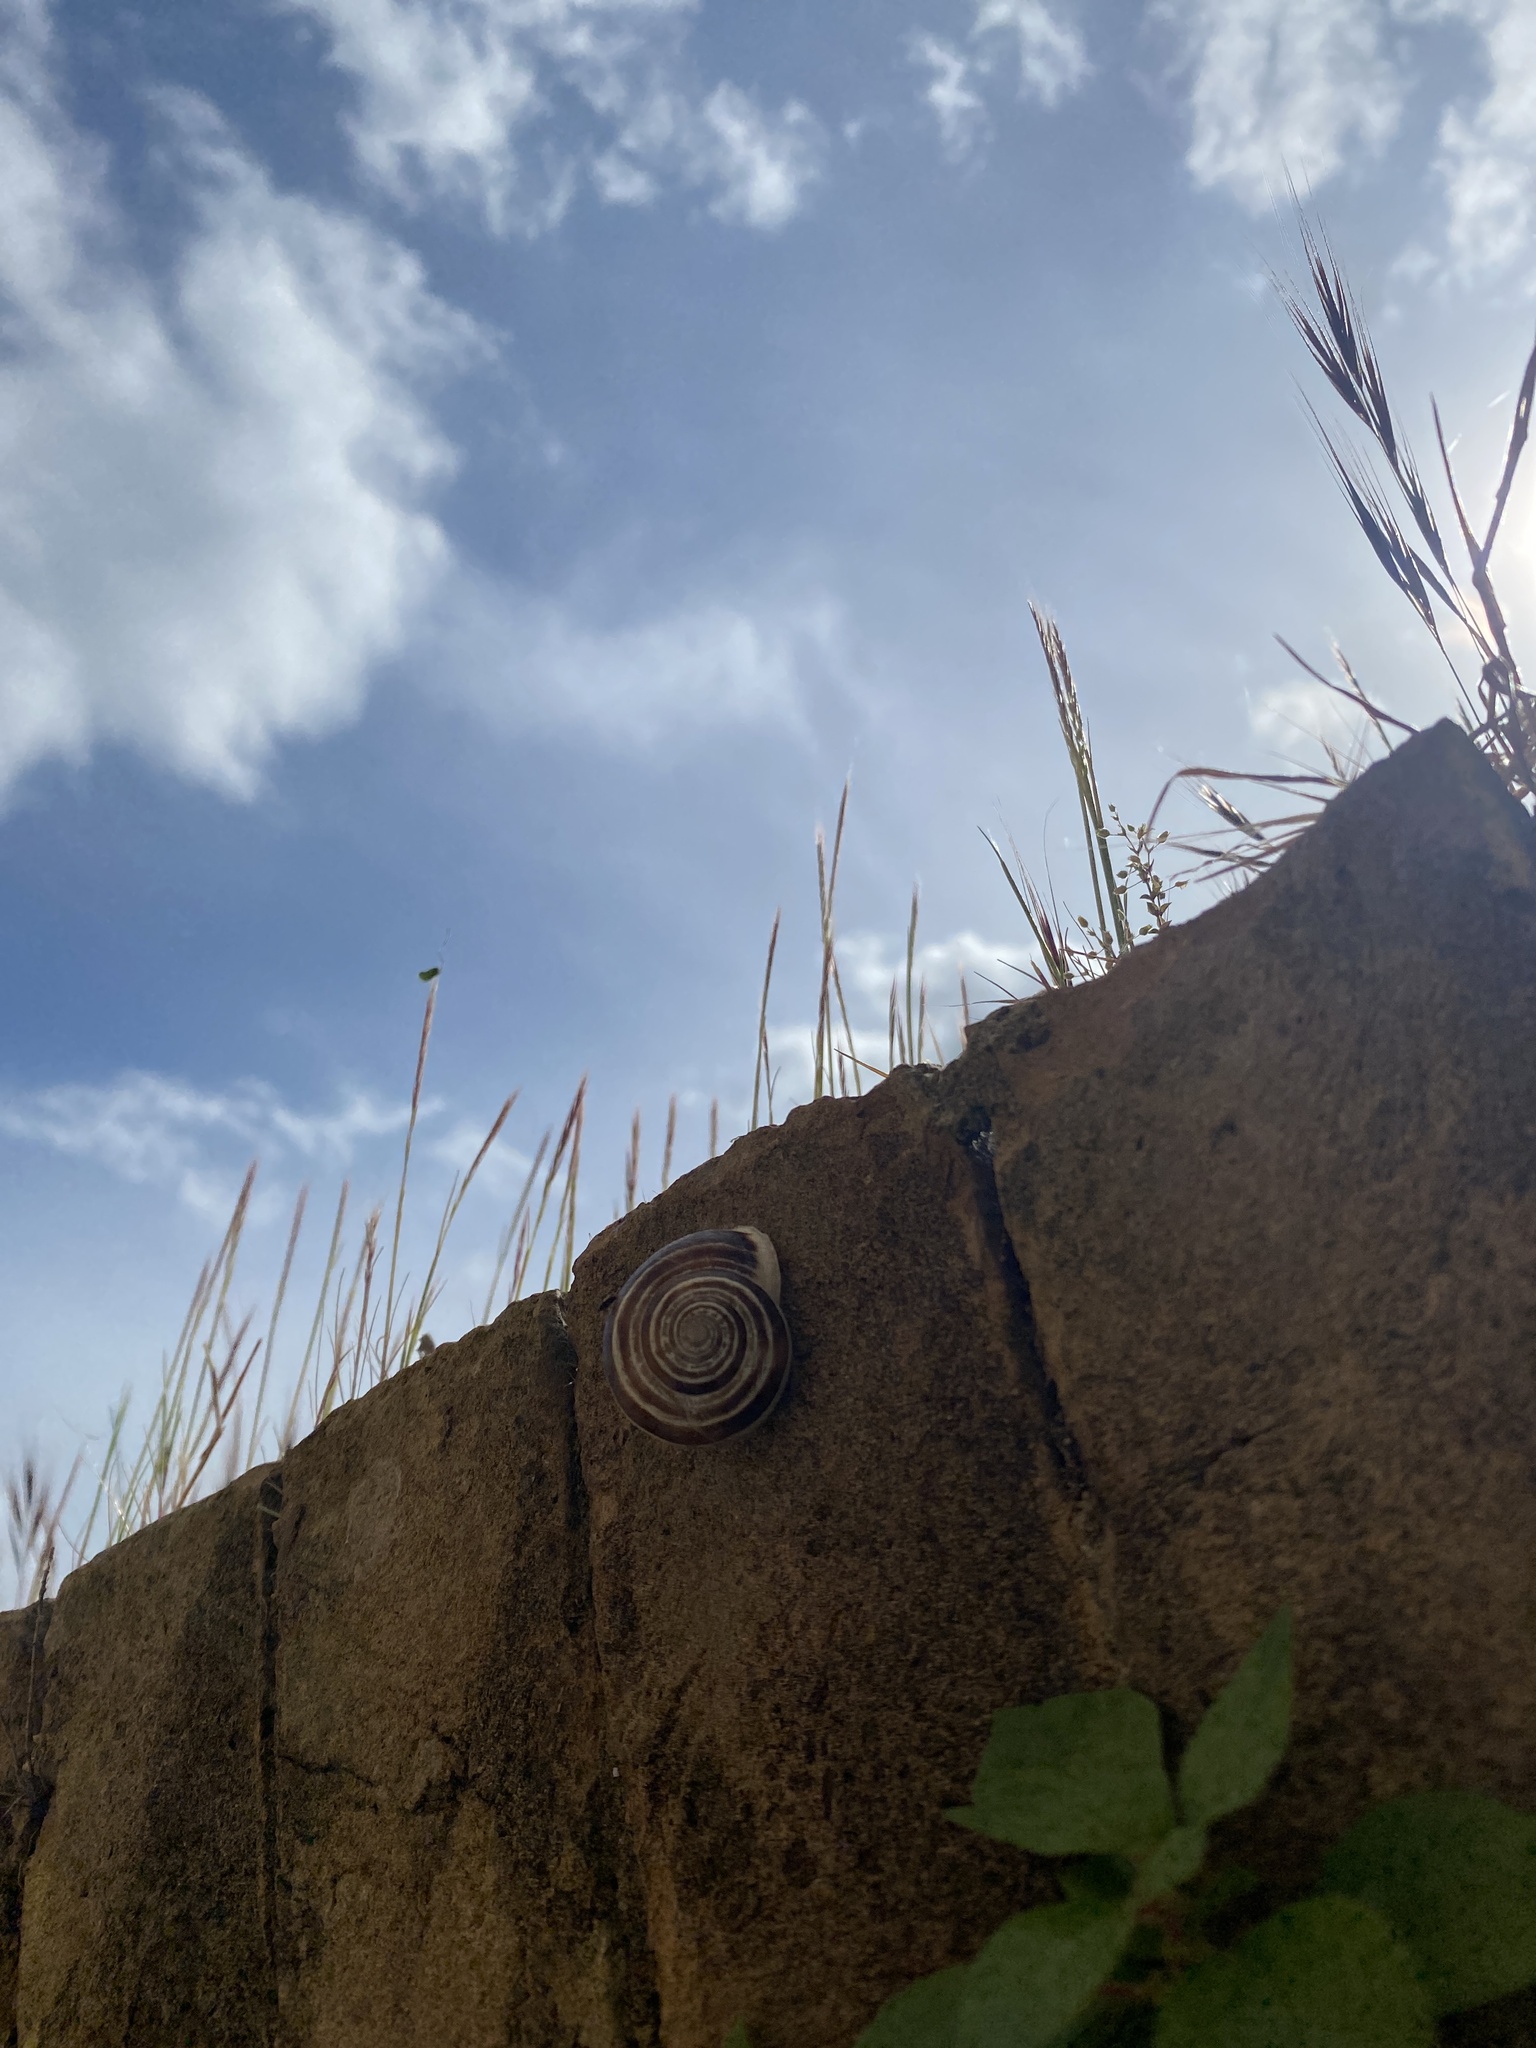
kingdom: Animalia
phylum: Mollusca
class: Gastropoda
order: Stylommatophora
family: Helicidae
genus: Eobania
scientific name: Eobania vermiculata
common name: Chocolateband snail
